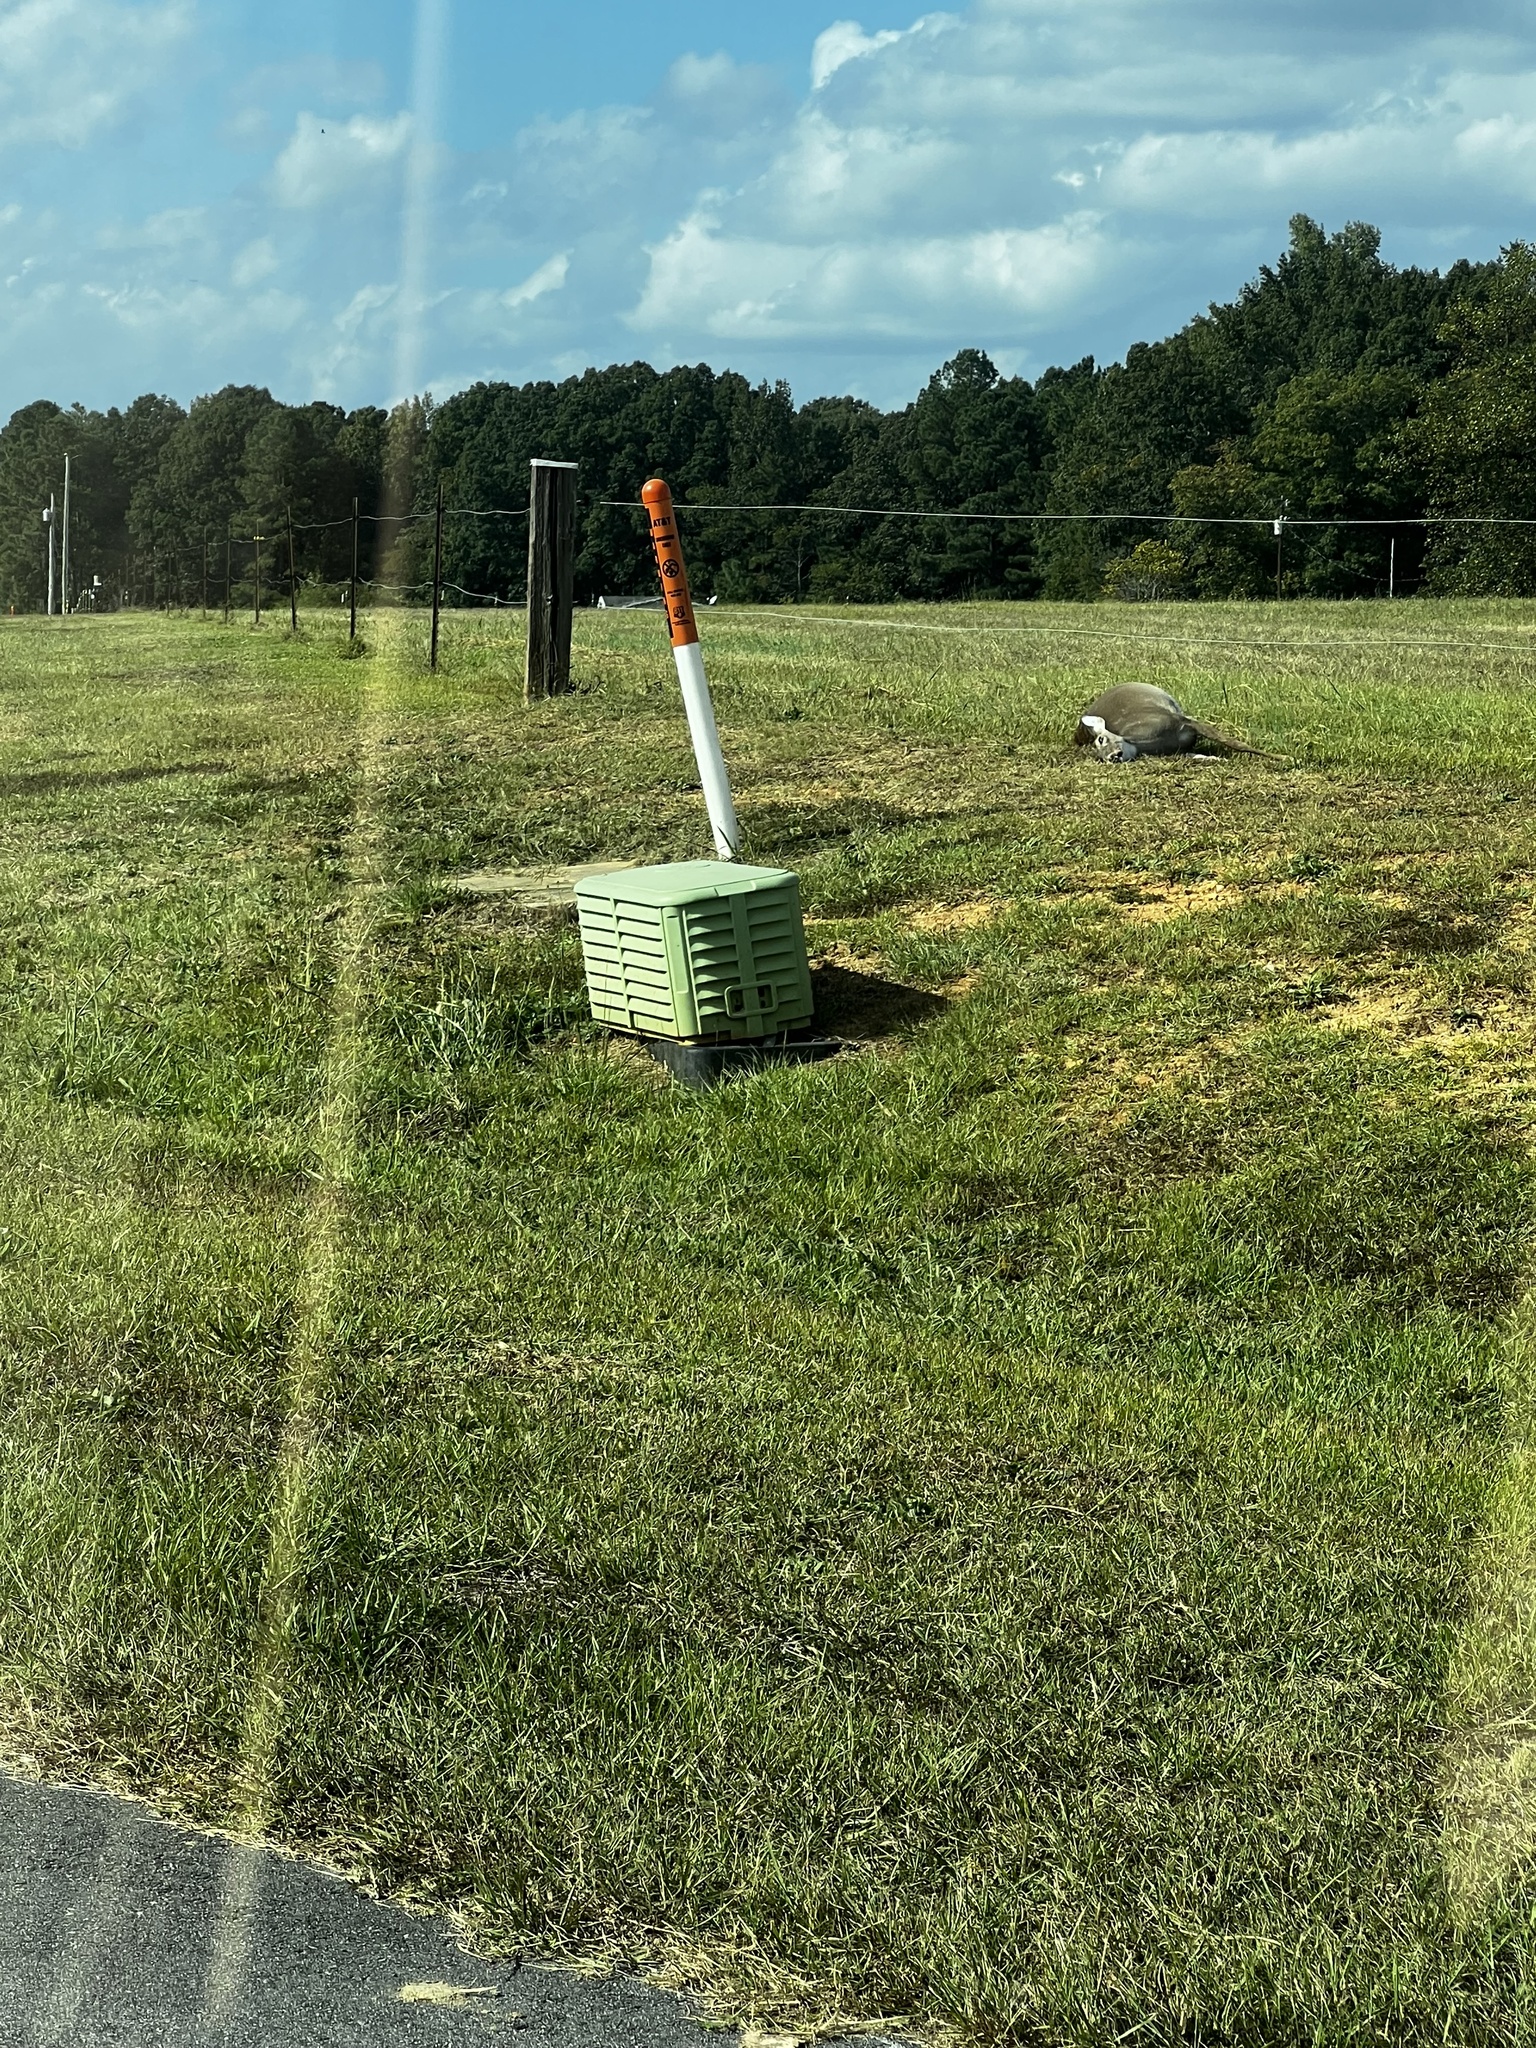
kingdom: Animalia
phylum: Chordata
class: Mammalia
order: Artiodactyla
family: Cervidae
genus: Odocoileus
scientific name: Odocoileus virginianus
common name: White-tailed deer
